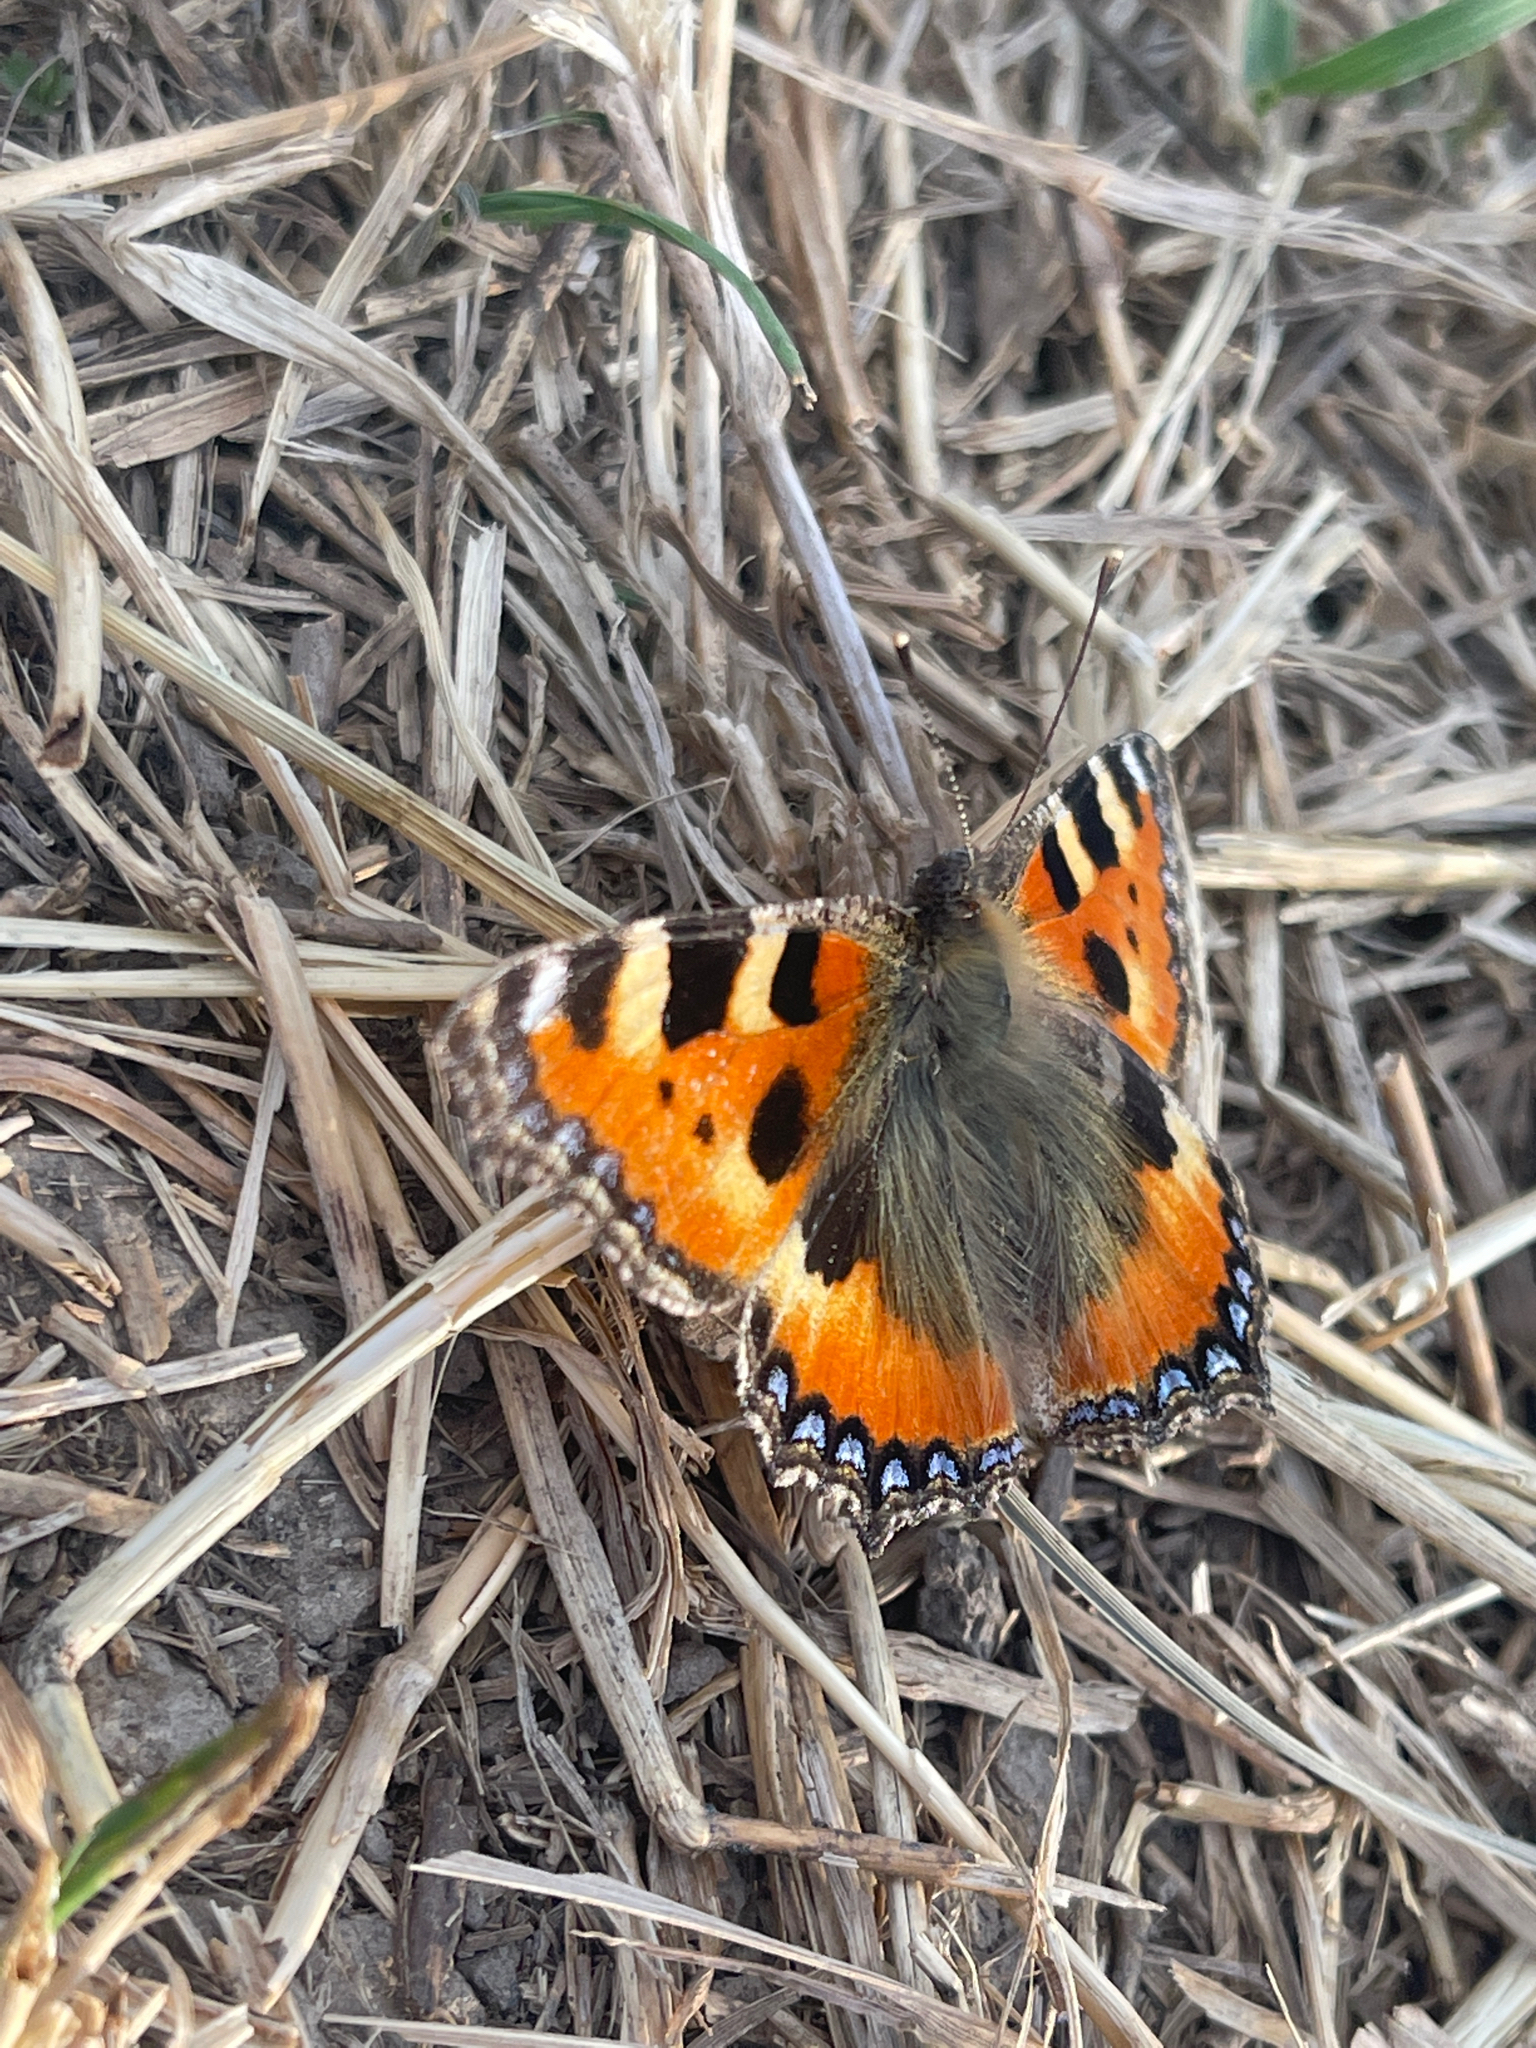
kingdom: Animalia
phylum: Arthropoda
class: Insecta
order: Lepidoptera
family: Nymphalidae
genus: Aglais
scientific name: Aglais urticae
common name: Small tortoiseshell
